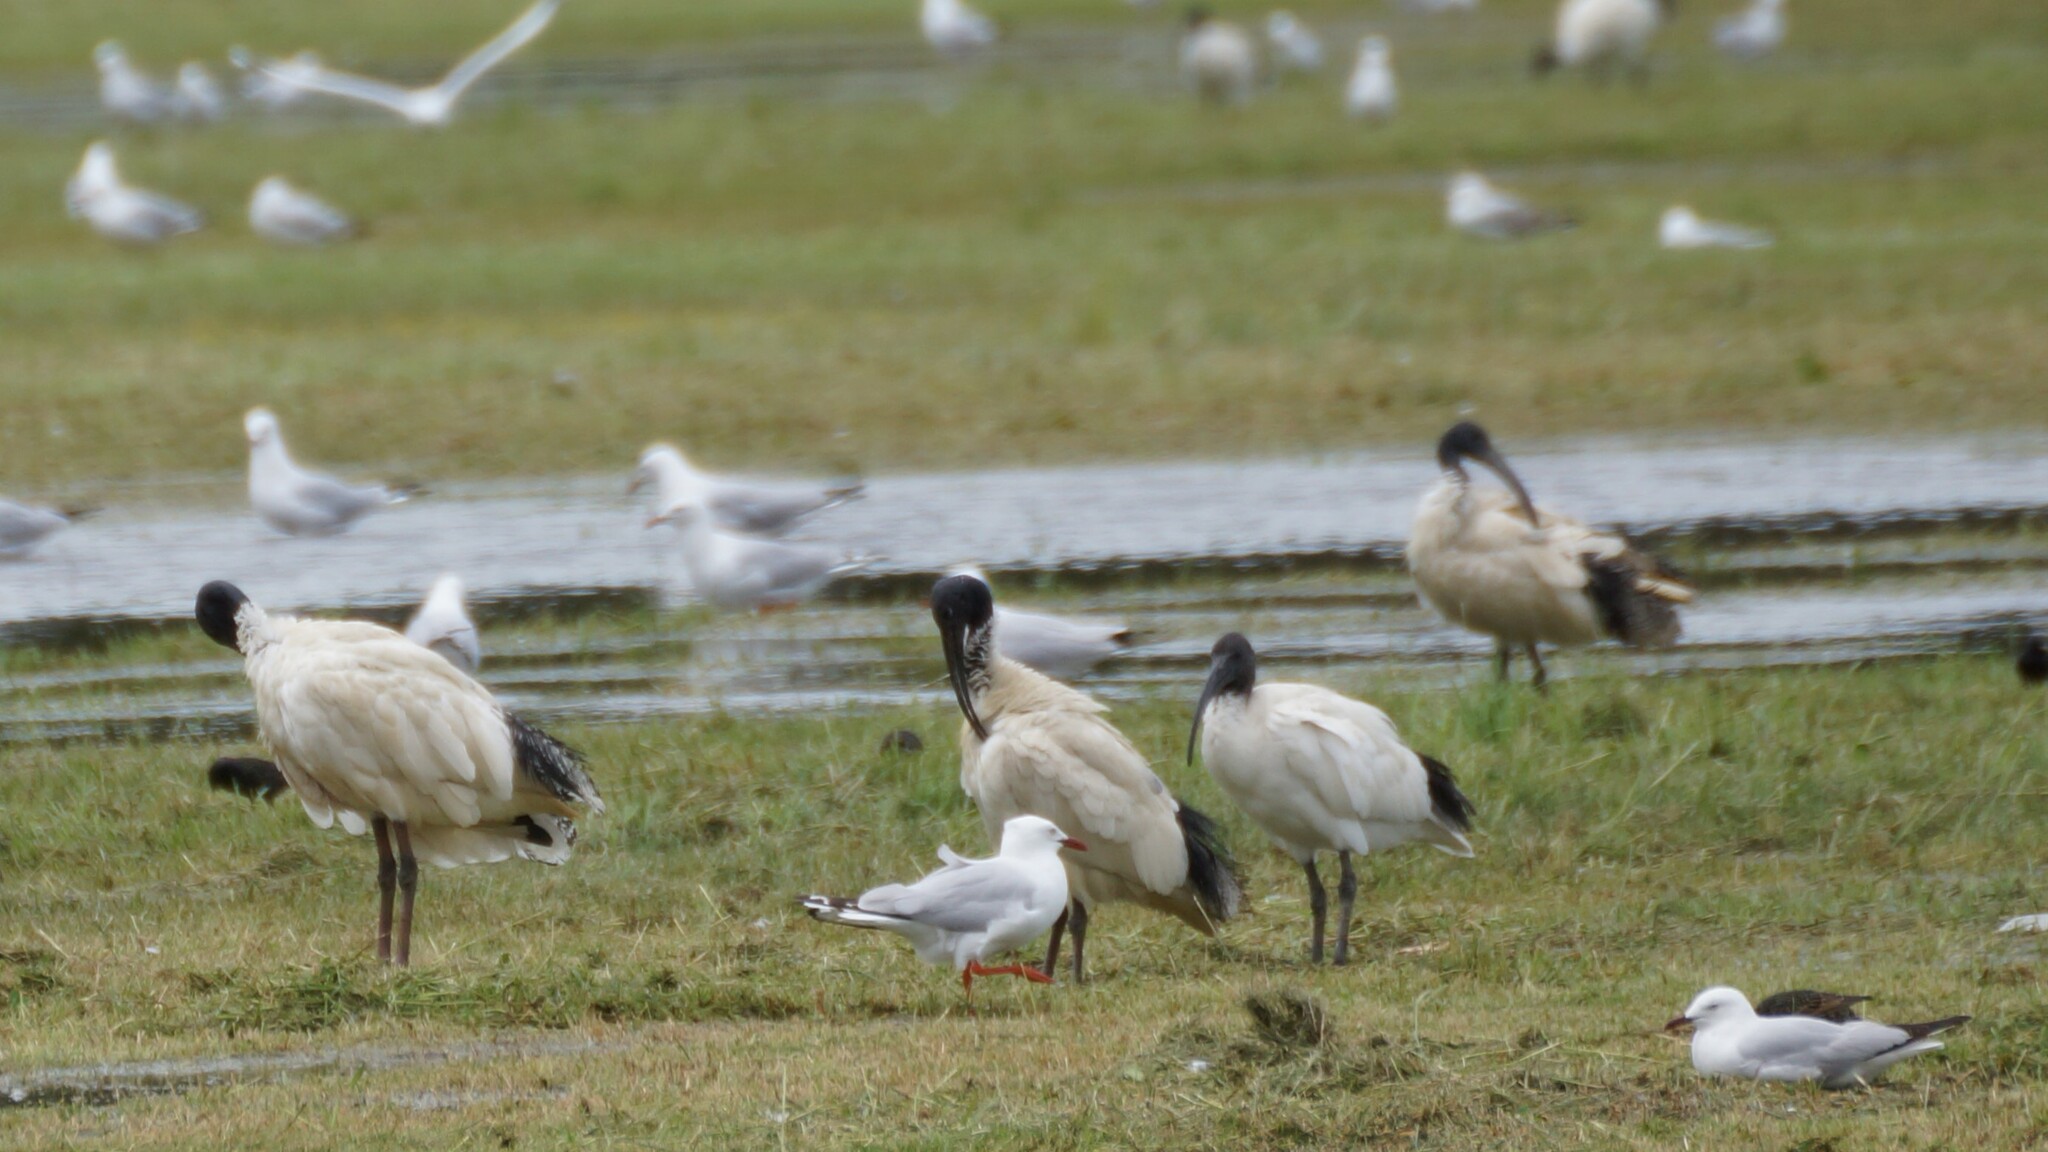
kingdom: Animalia
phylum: Chordata
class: Aves
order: Pelecaniformes
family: Threskiornithidae
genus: Threskiornis
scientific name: Threskiornis molucca
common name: Australian white ibis
